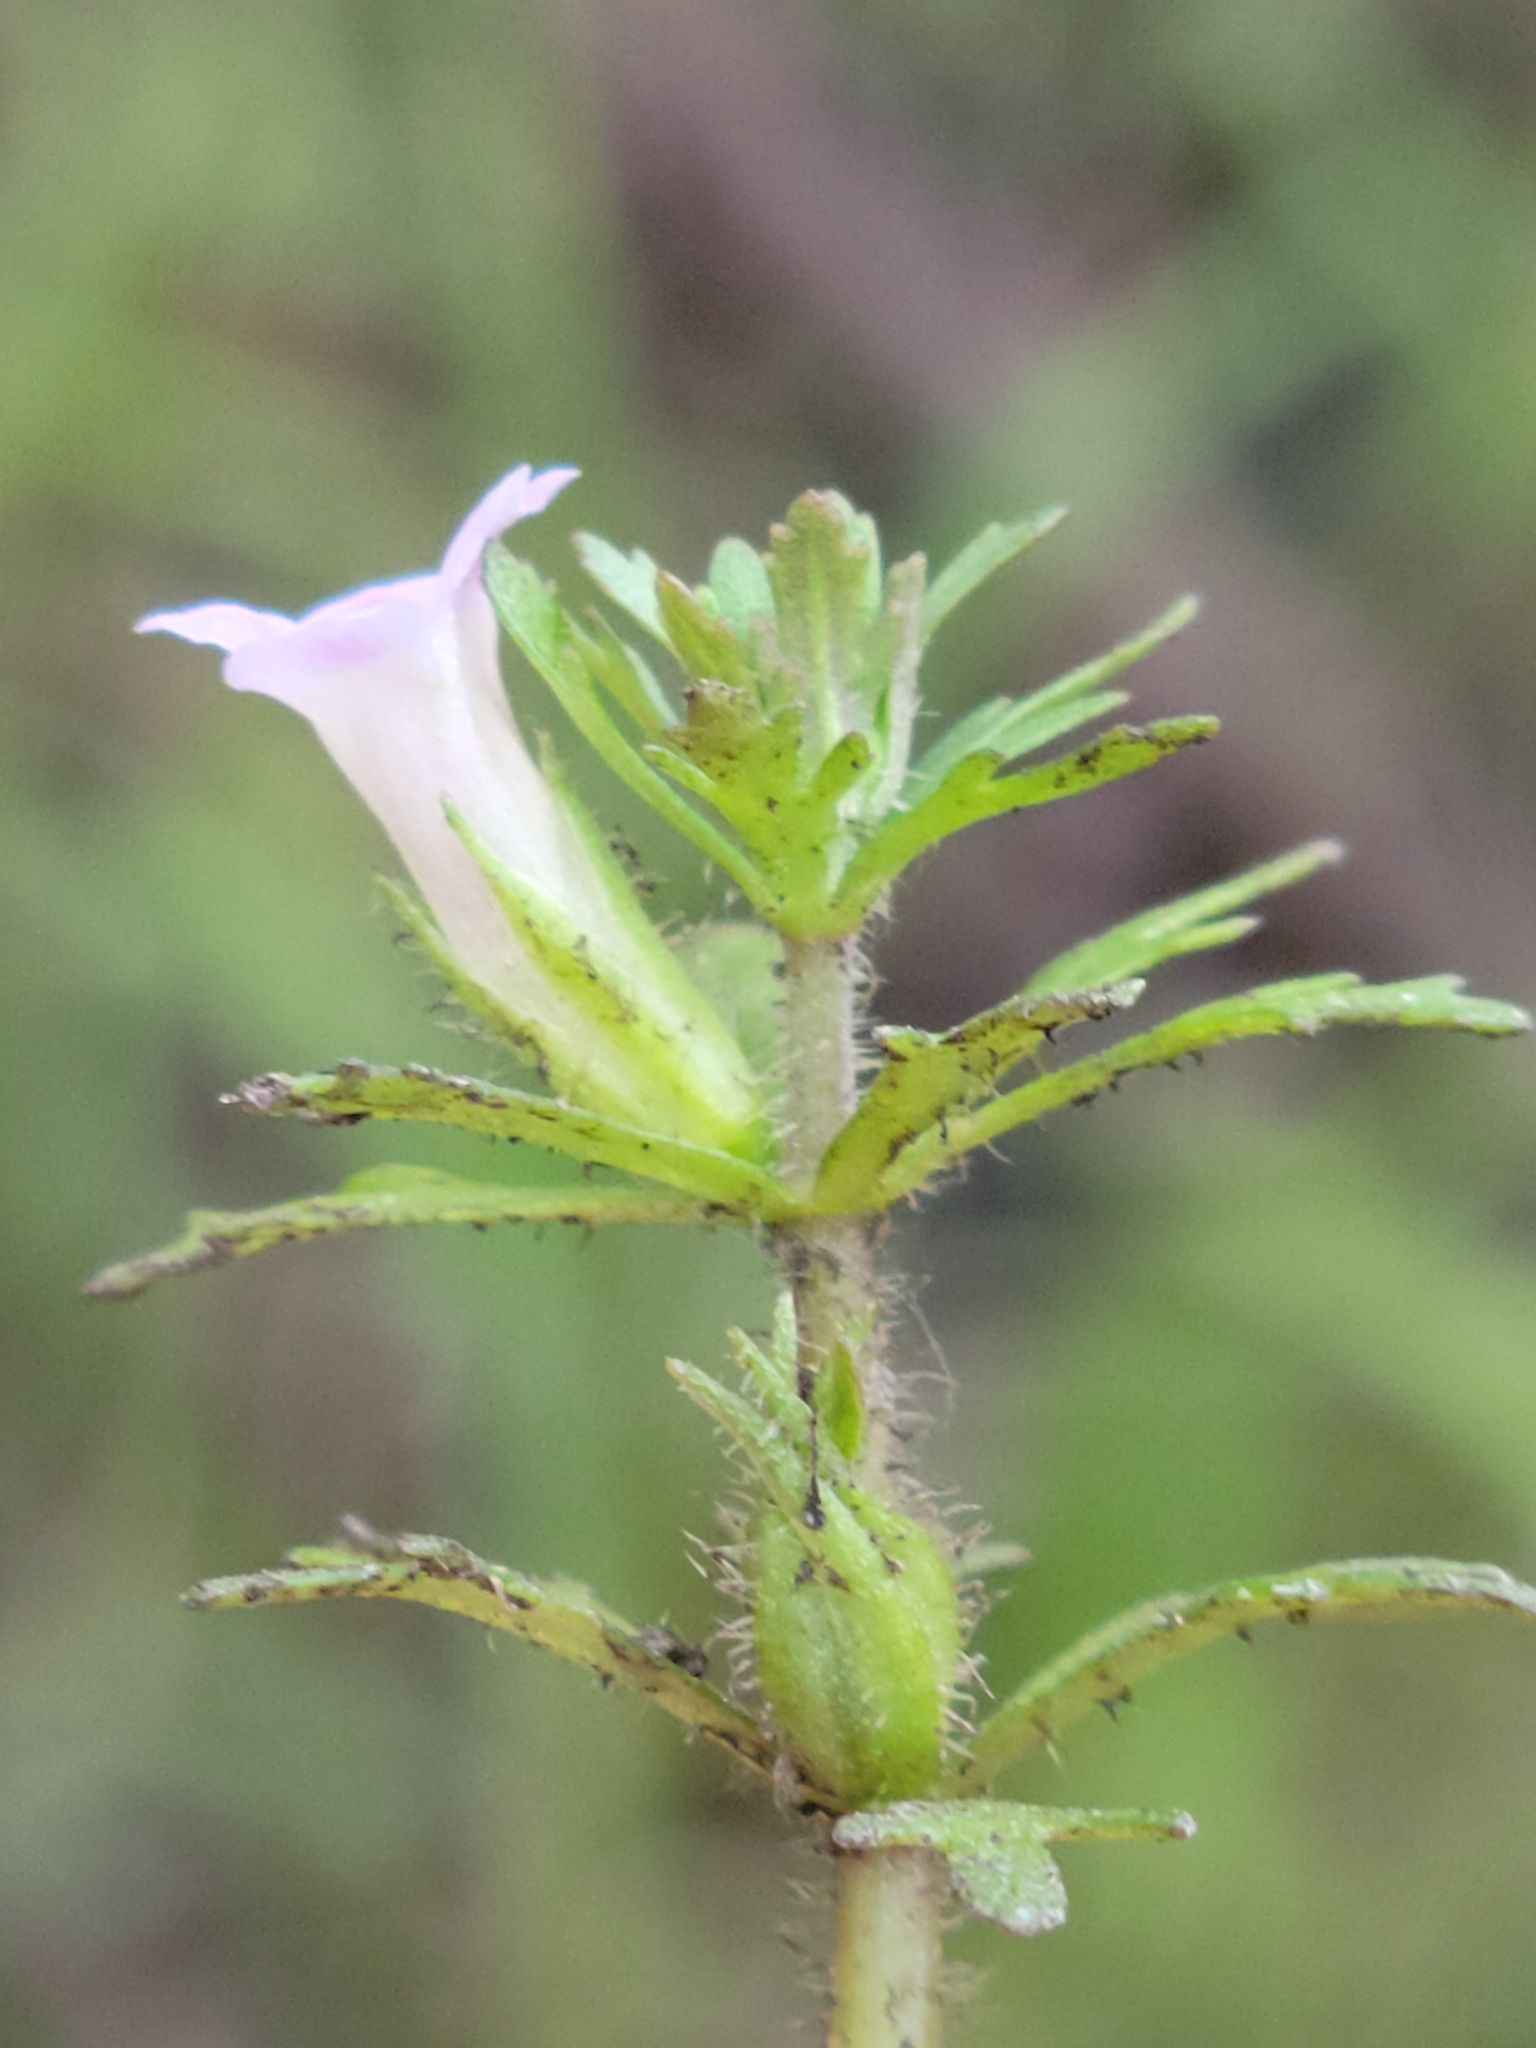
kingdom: Plantae
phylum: Tracheophyta
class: Magnoliopsida
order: Lamiales
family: Plantaginaceae
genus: Limnophila
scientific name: Limnophila sessiliflora
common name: Asian marshweed
